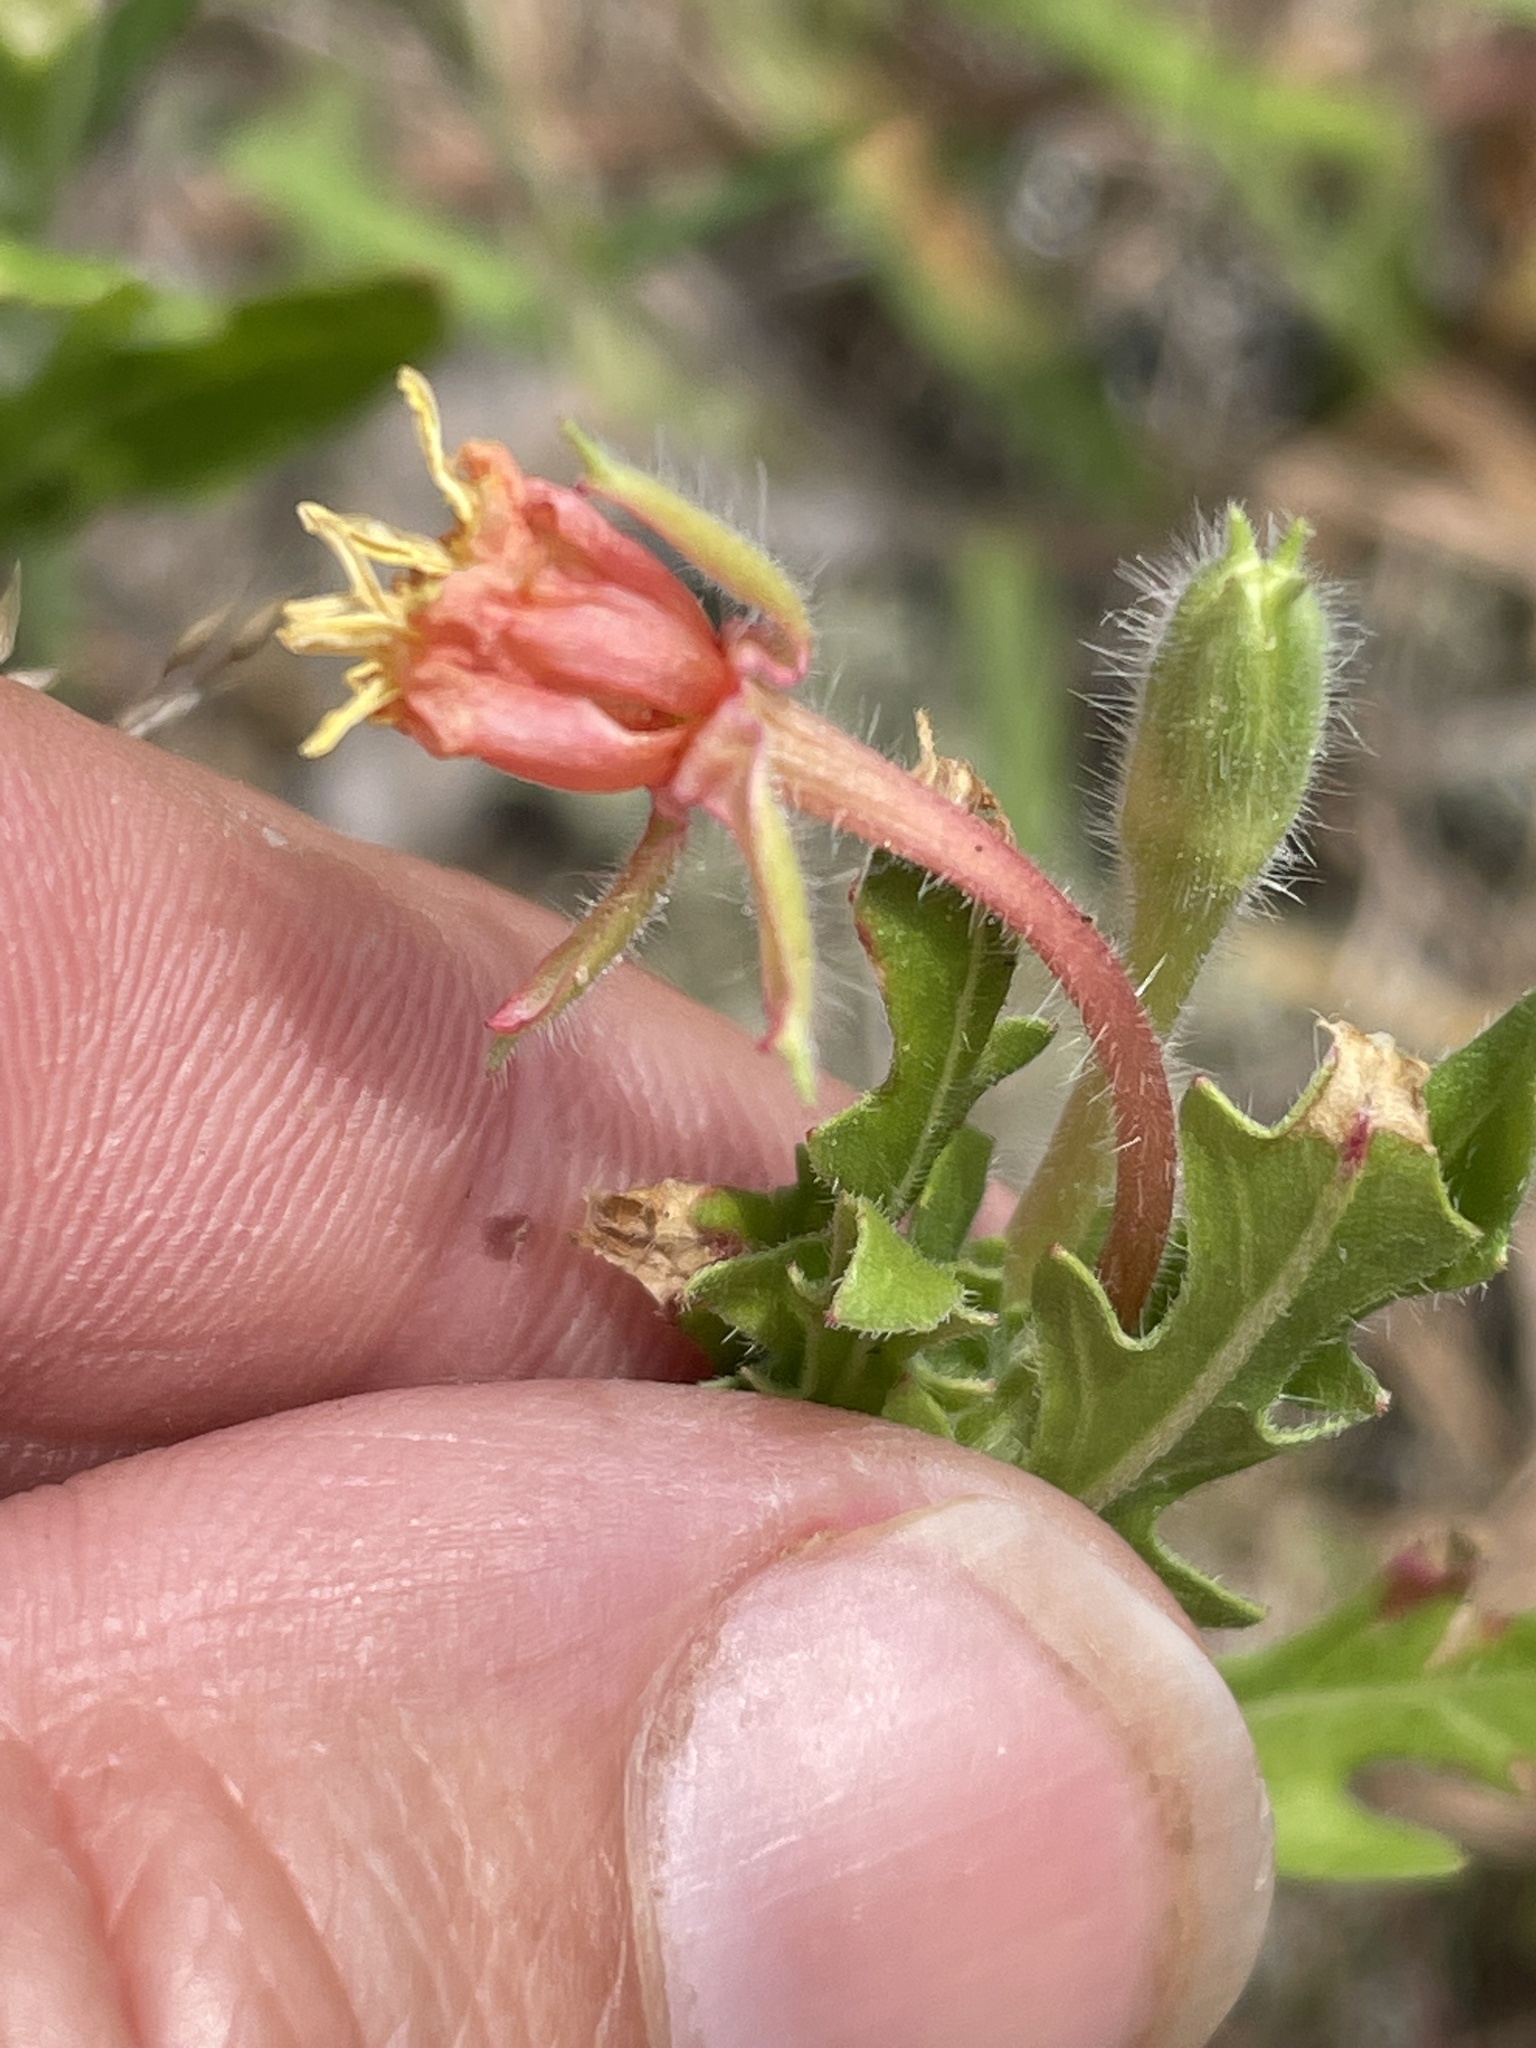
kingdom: Plantae
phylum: Tracheophyta
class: Magnoliopsida
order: Myrtales
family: Onagraceae
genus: Oenothera
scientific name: Oenothera laciniata
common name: Cut-leaved evening-primrose
